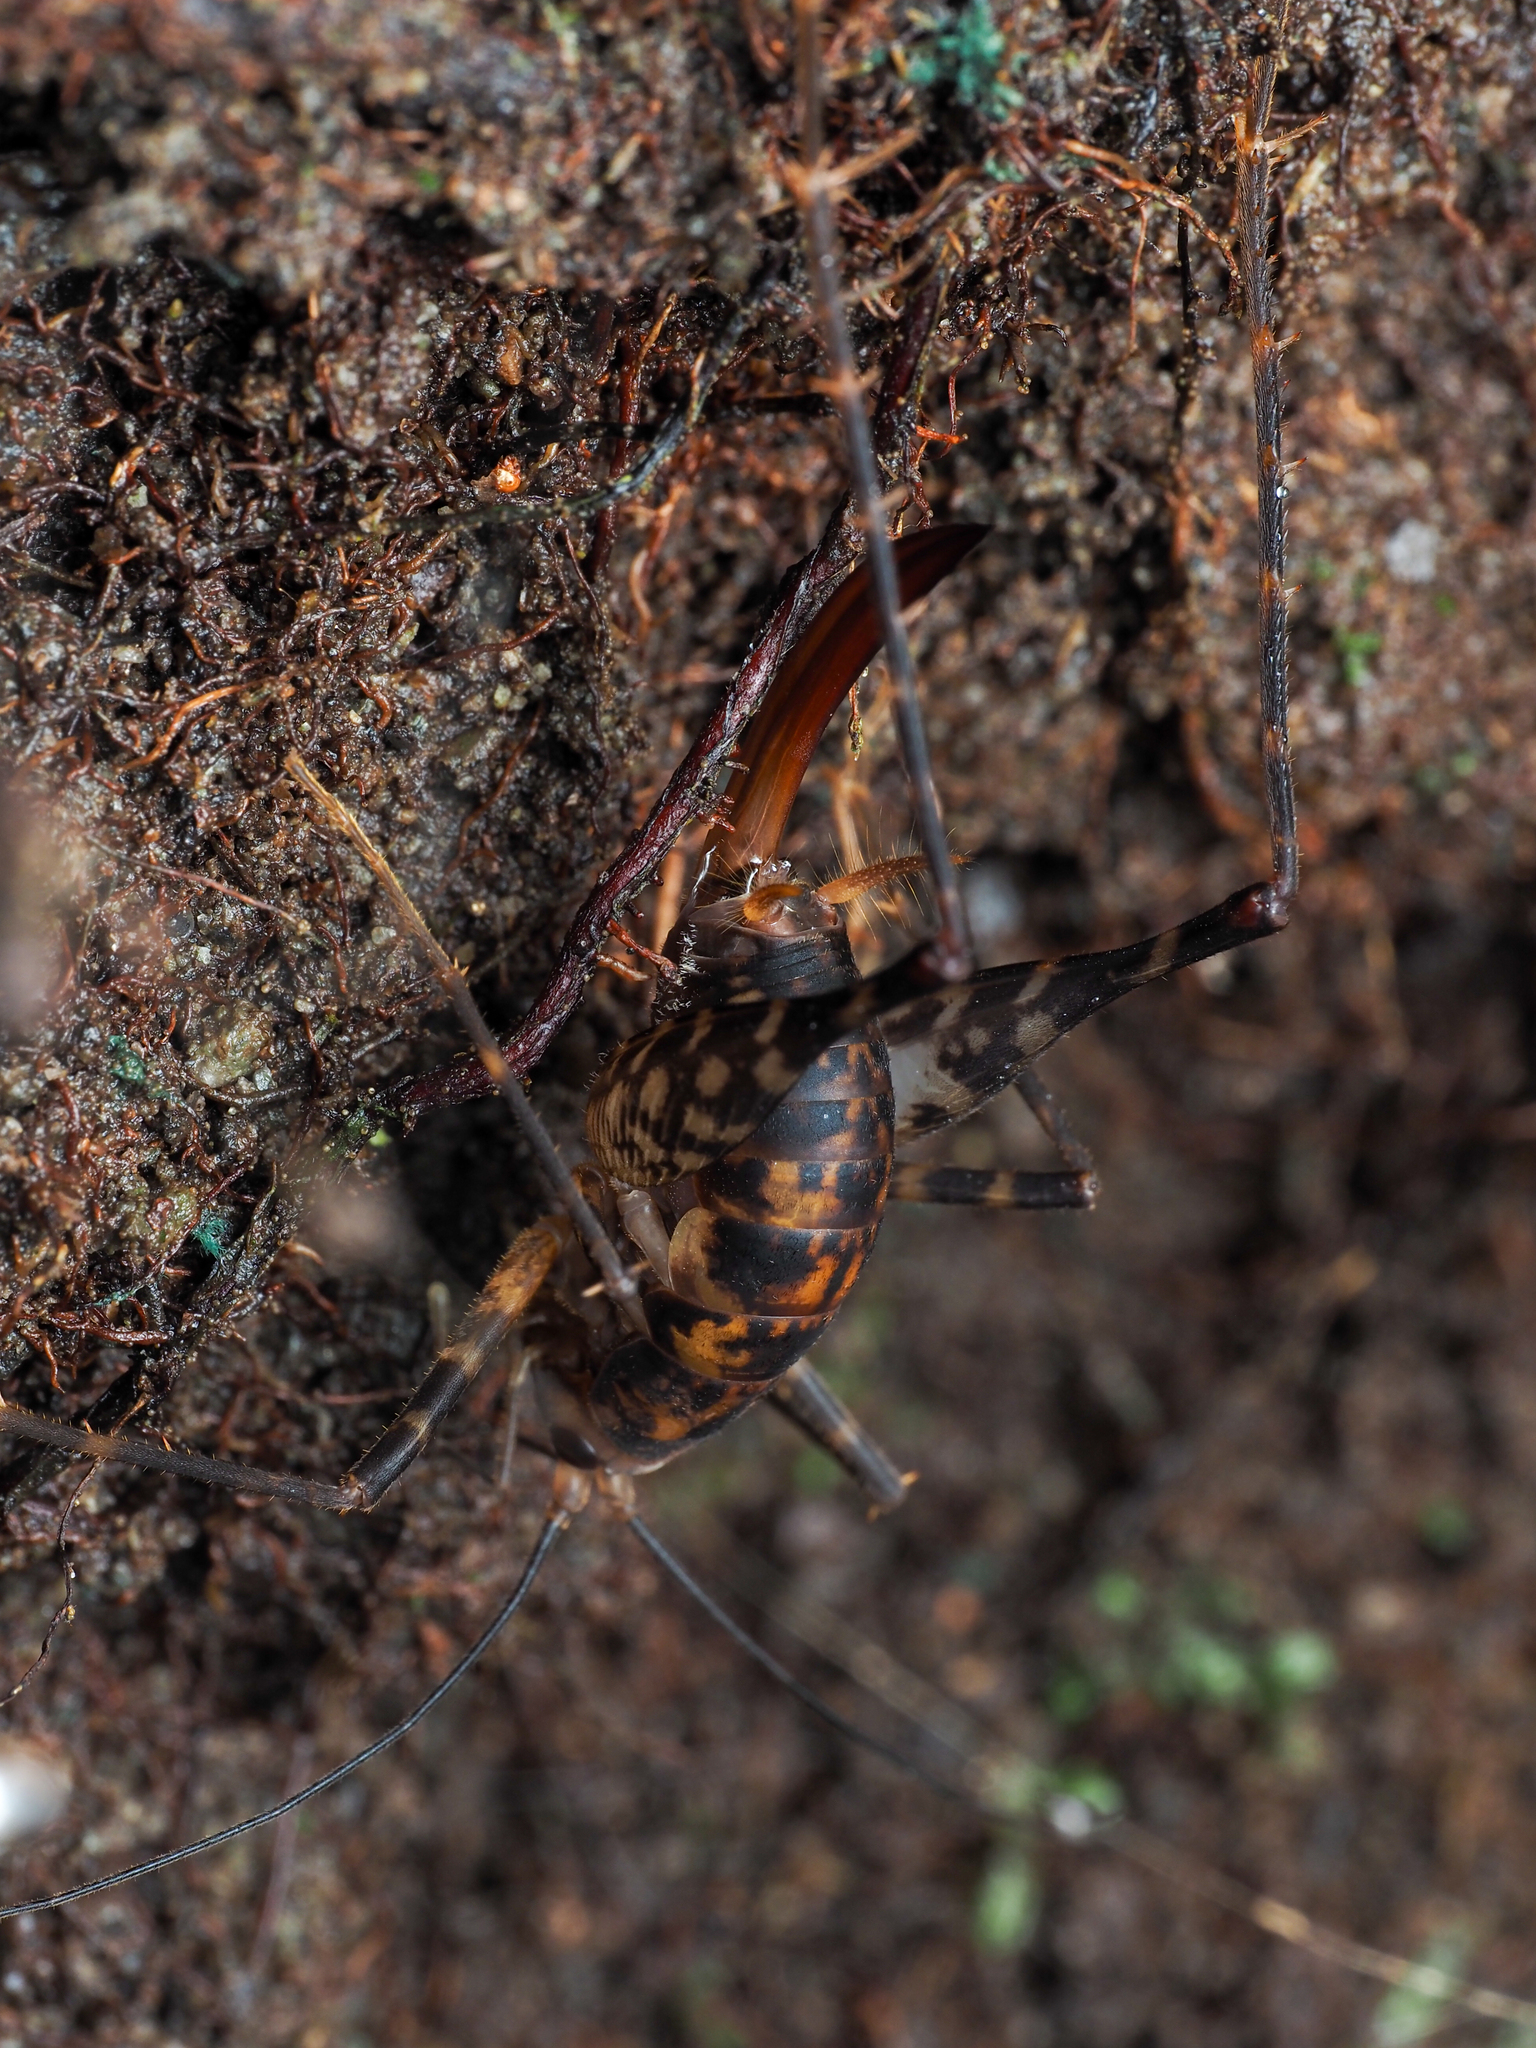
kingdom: Animalia
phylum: Arthropoda
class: Insecta
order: Orthoptera
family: Rhaphidophoridae
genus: Miotopus
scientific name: Miotopus richardsae
